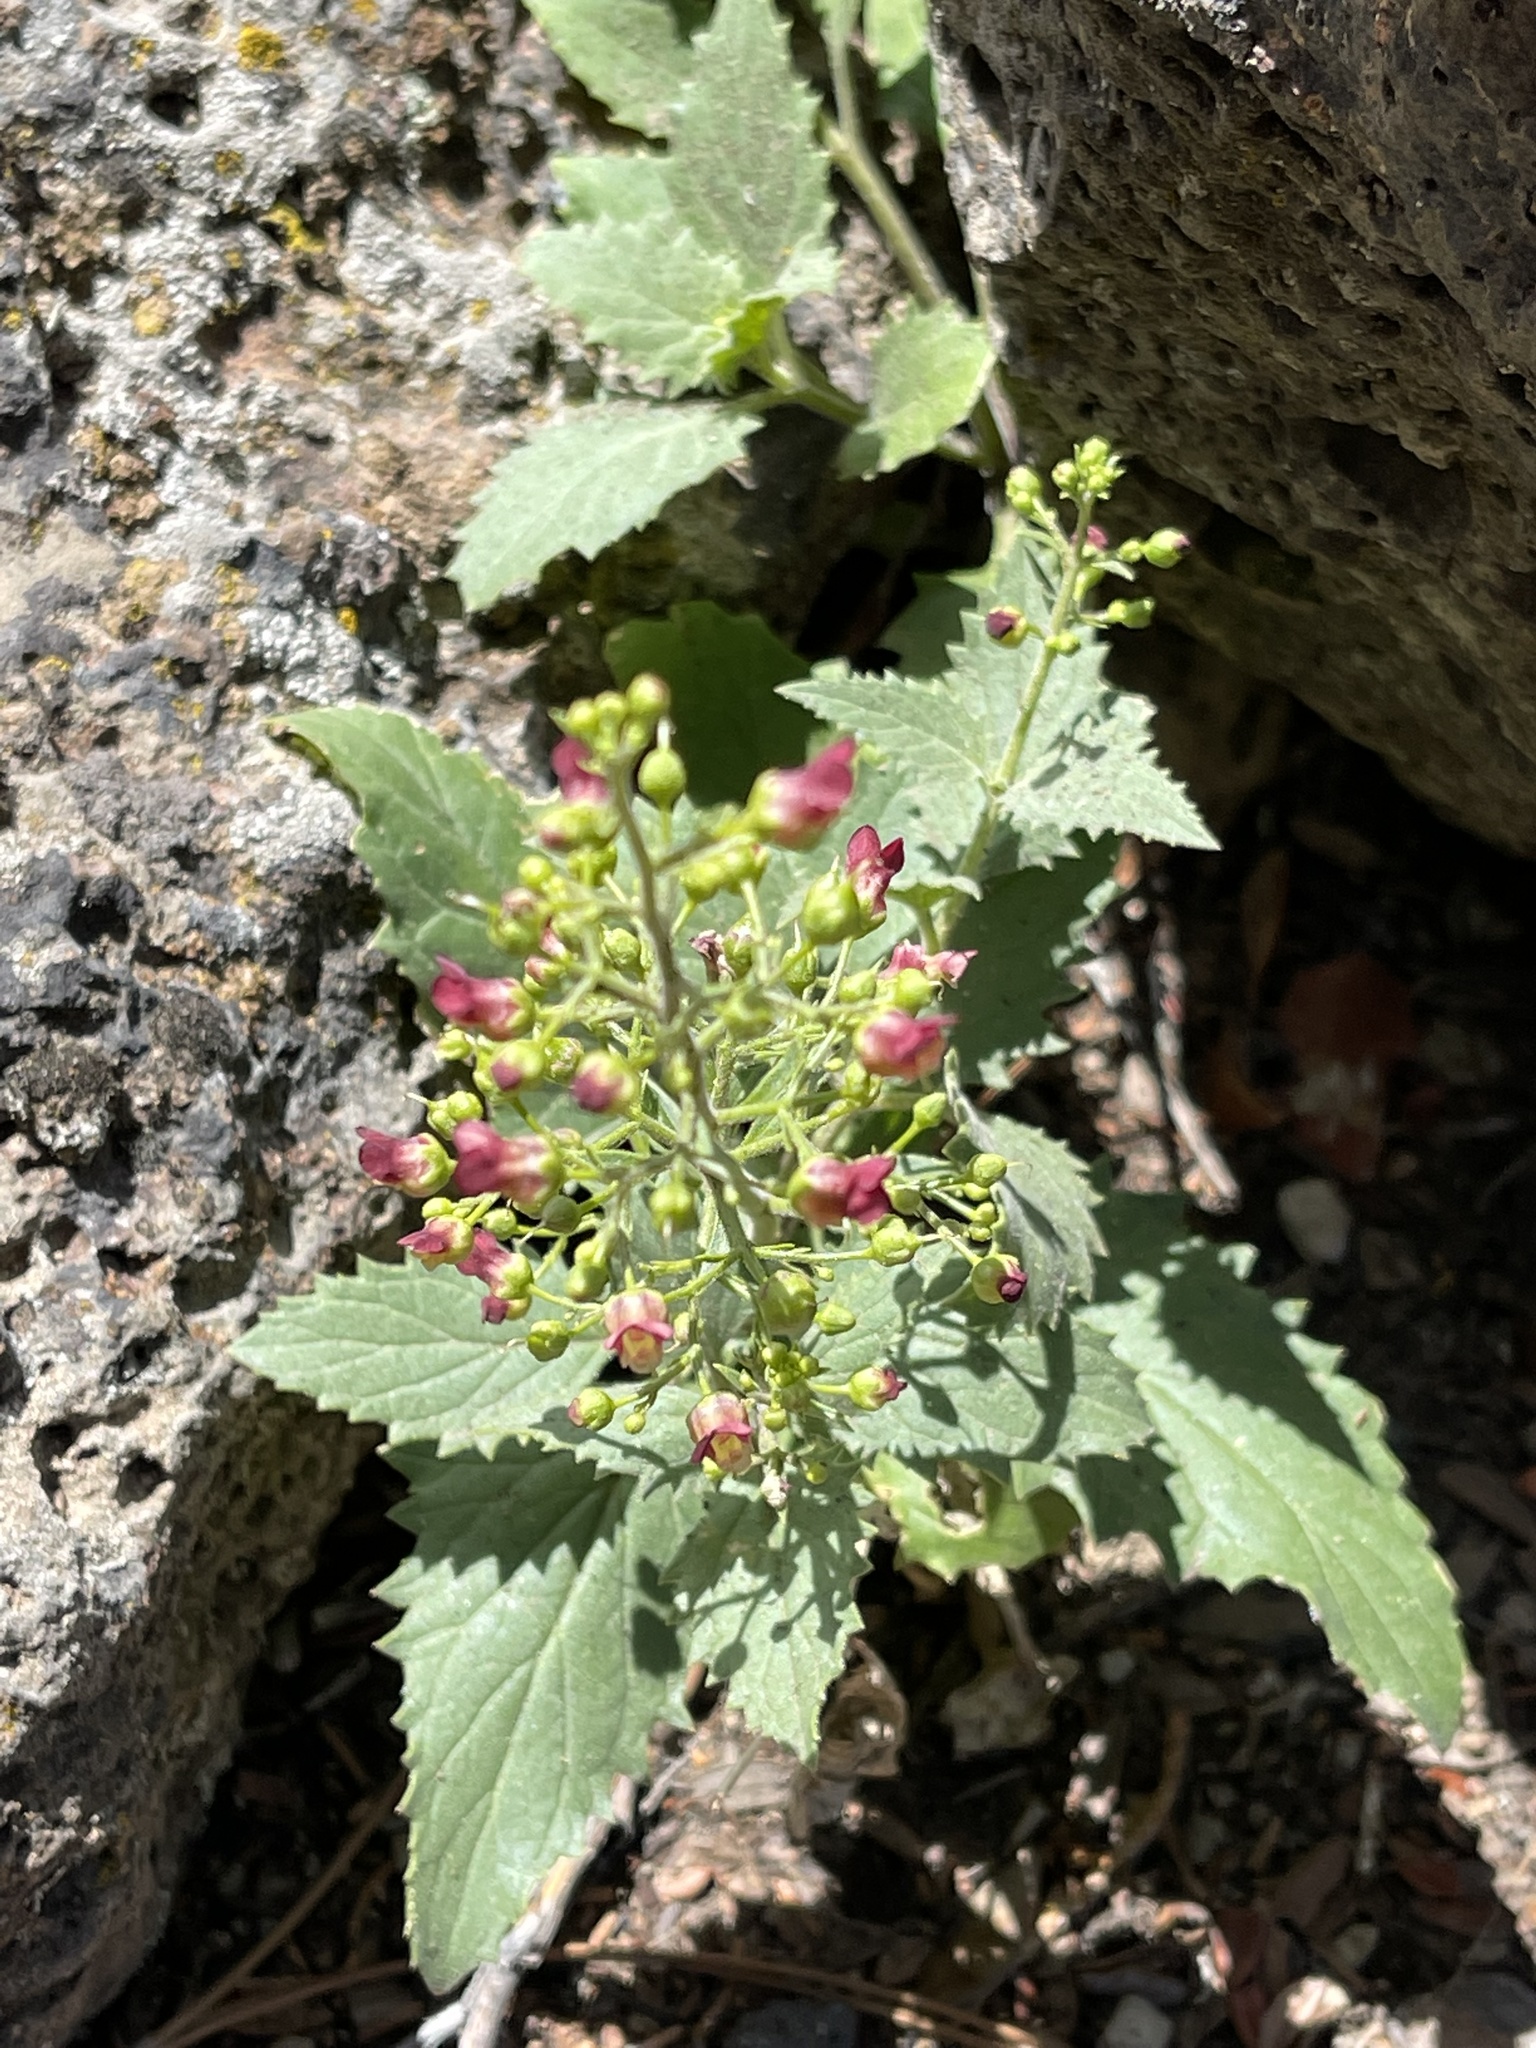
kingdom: Plantae
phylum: Tracheophyta
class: Magnoliopsida
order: Lamiales
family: Scrophulariaceae
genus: Scrophularia
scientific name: Scrophularia desertorum
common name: Desert figwort
